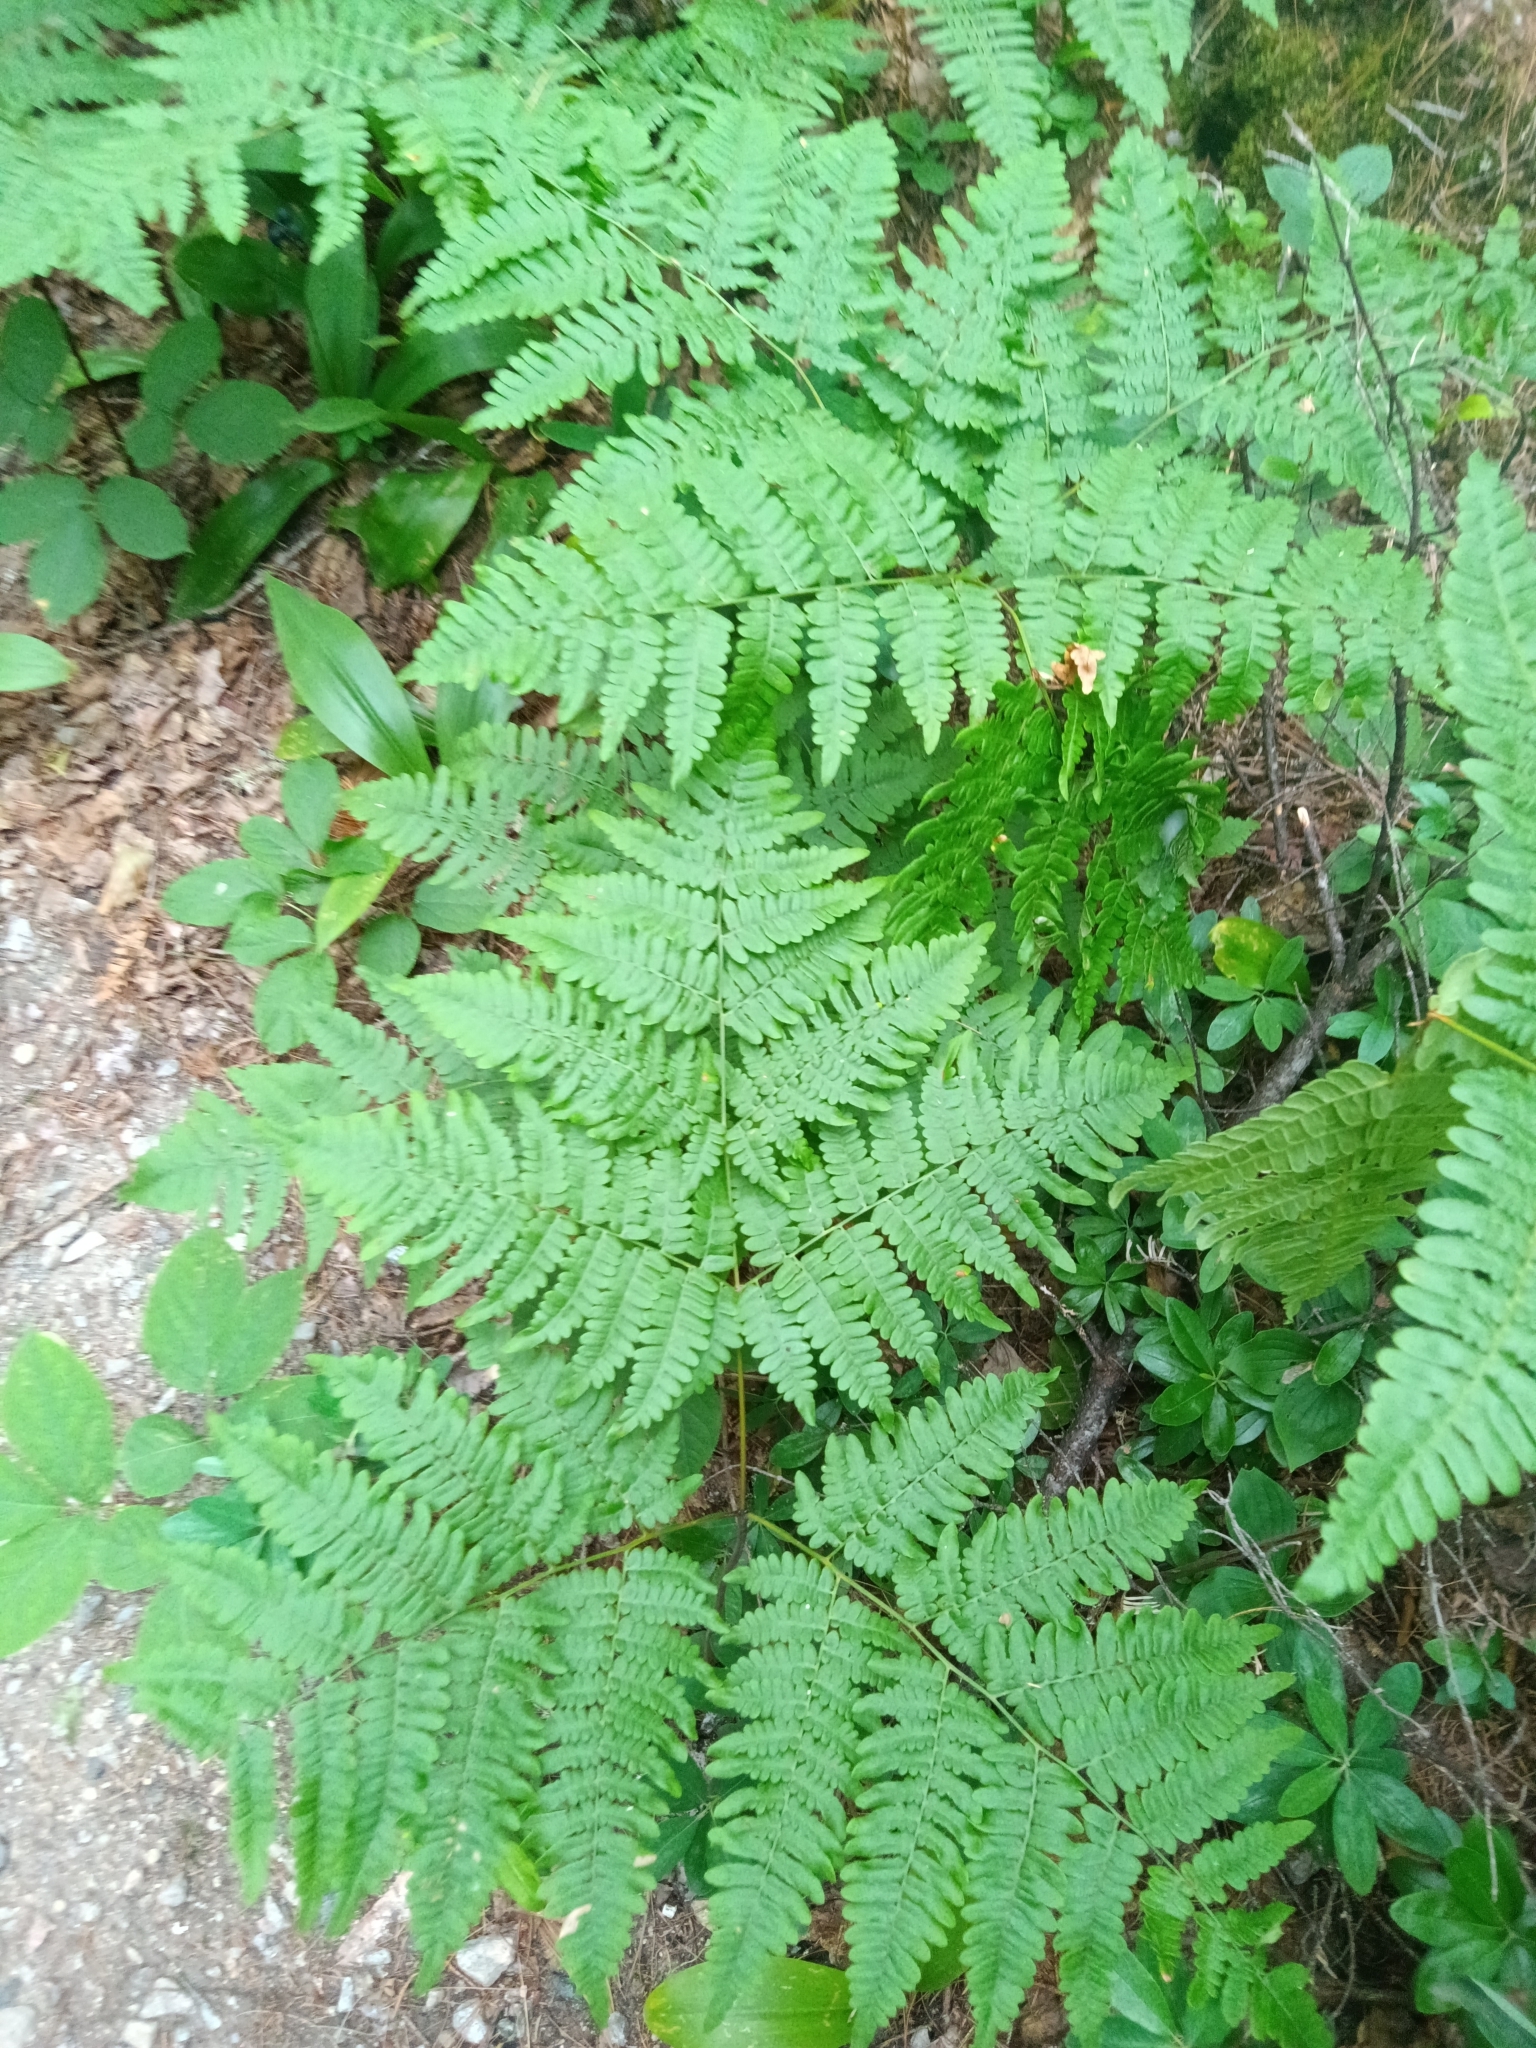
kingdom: Plantae
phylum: Tracheophyta
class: Polypodiopsida
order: Polypodiales
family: Dennstaedtiaceae
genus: Pteridium
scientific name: Pteridium aquilinum
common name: Bracken
